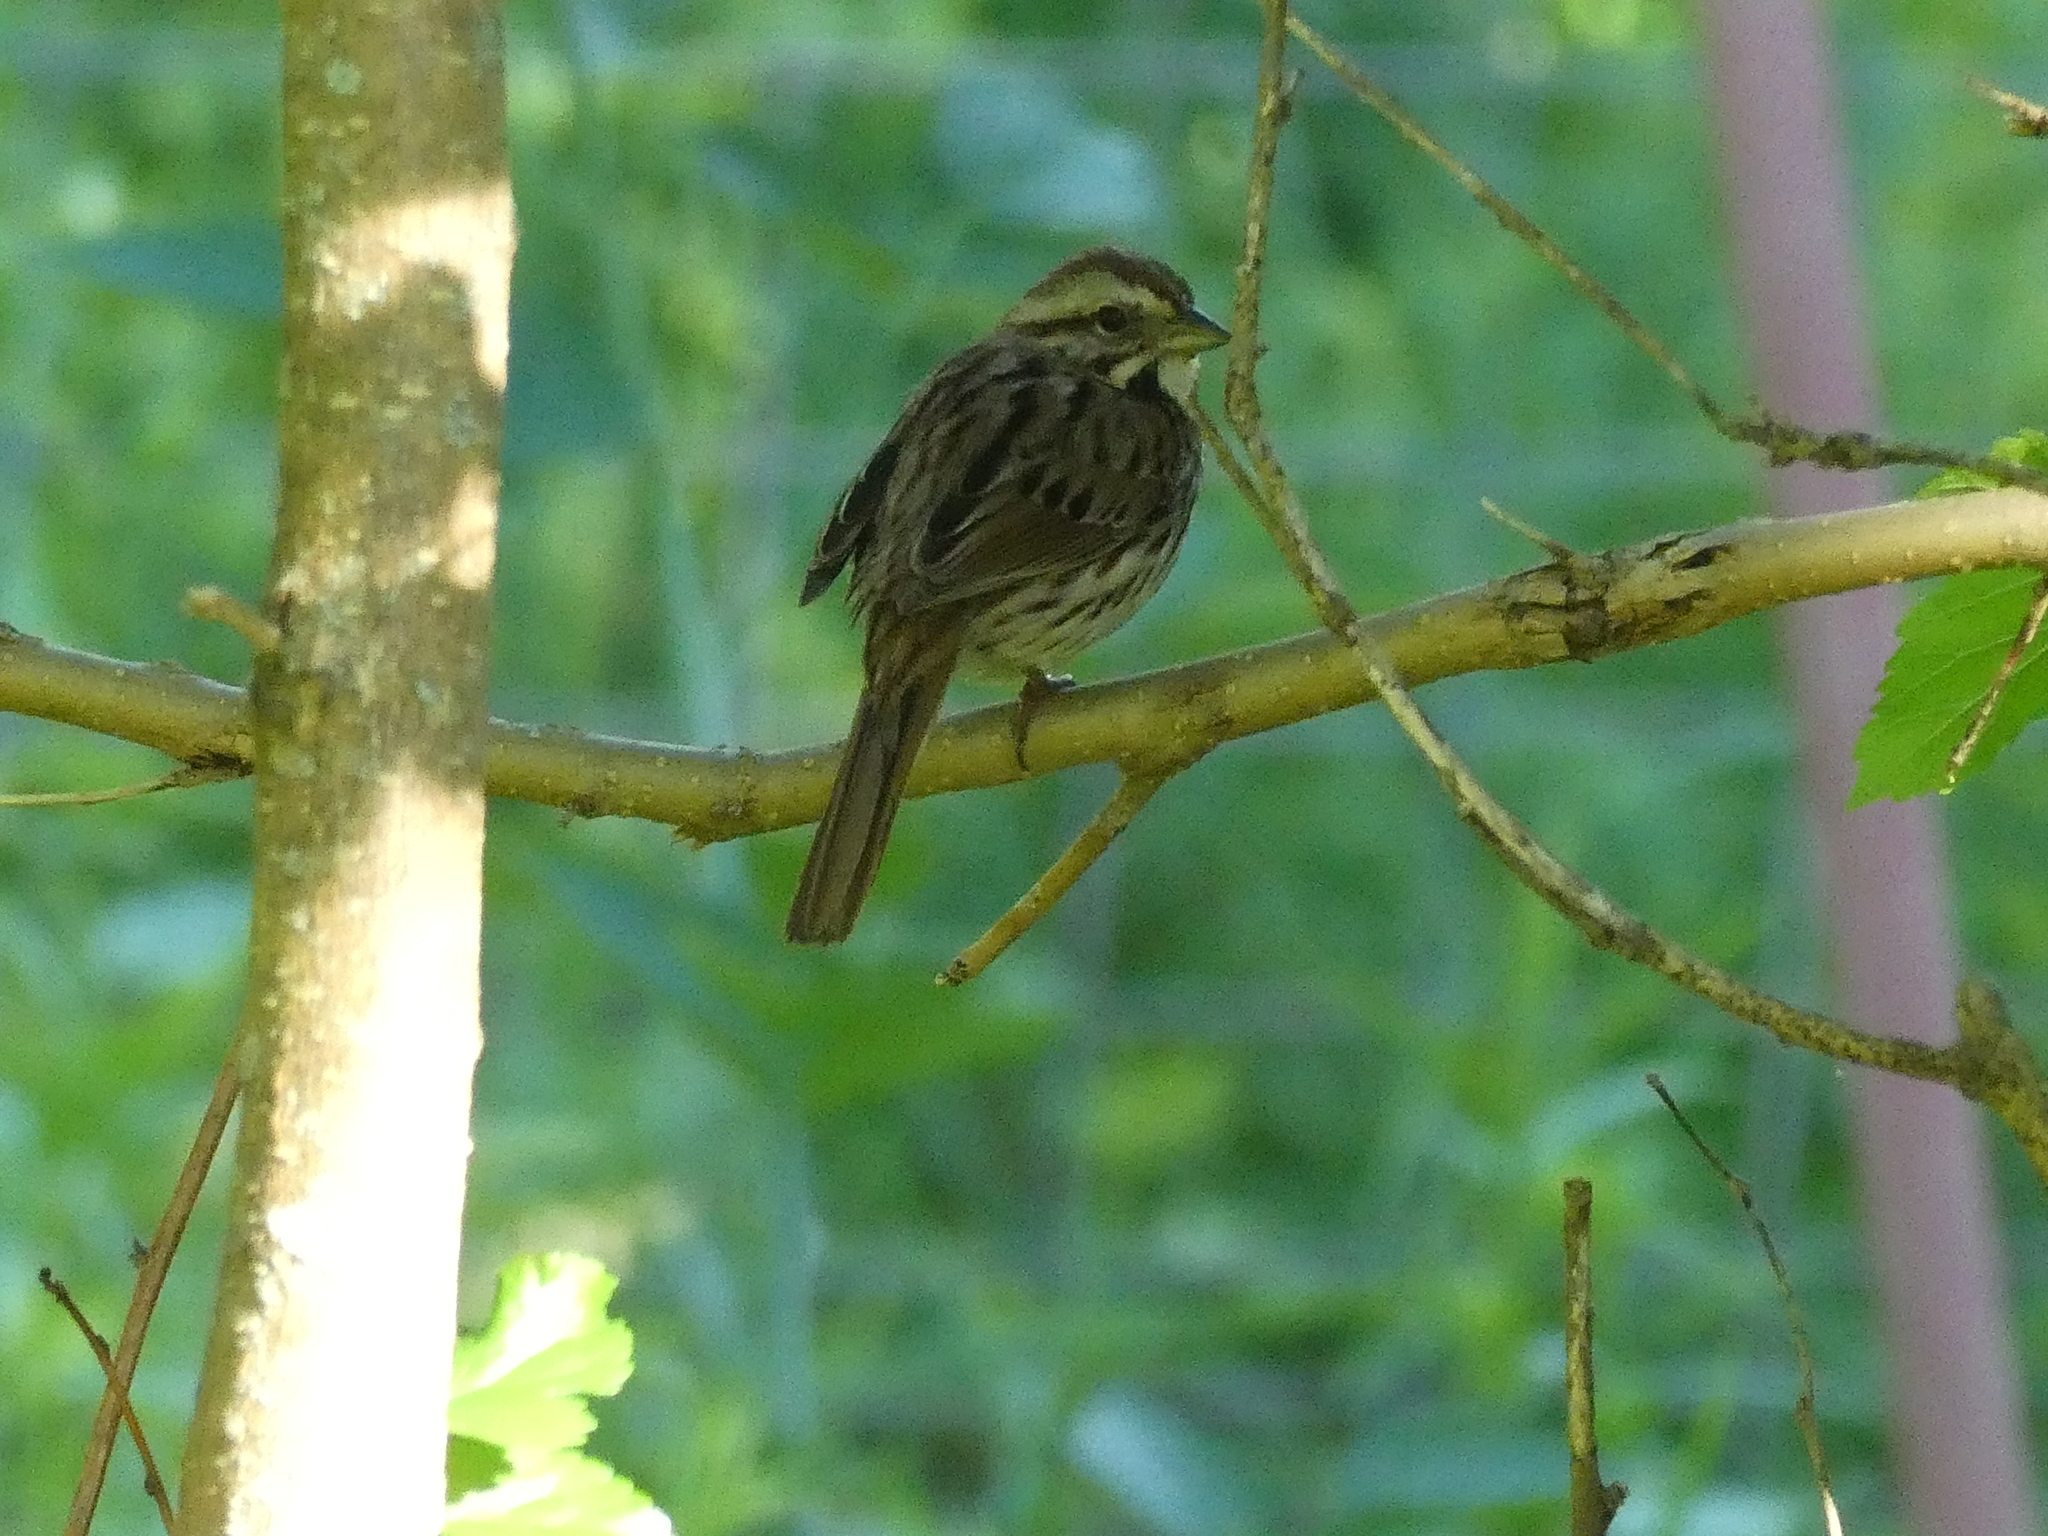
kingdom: Animalia
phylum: Chordata
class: Aves
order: Passeriformes
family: Passerellidae
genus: Melospiza
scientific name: Melospiza melodia
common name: Song sparrow
